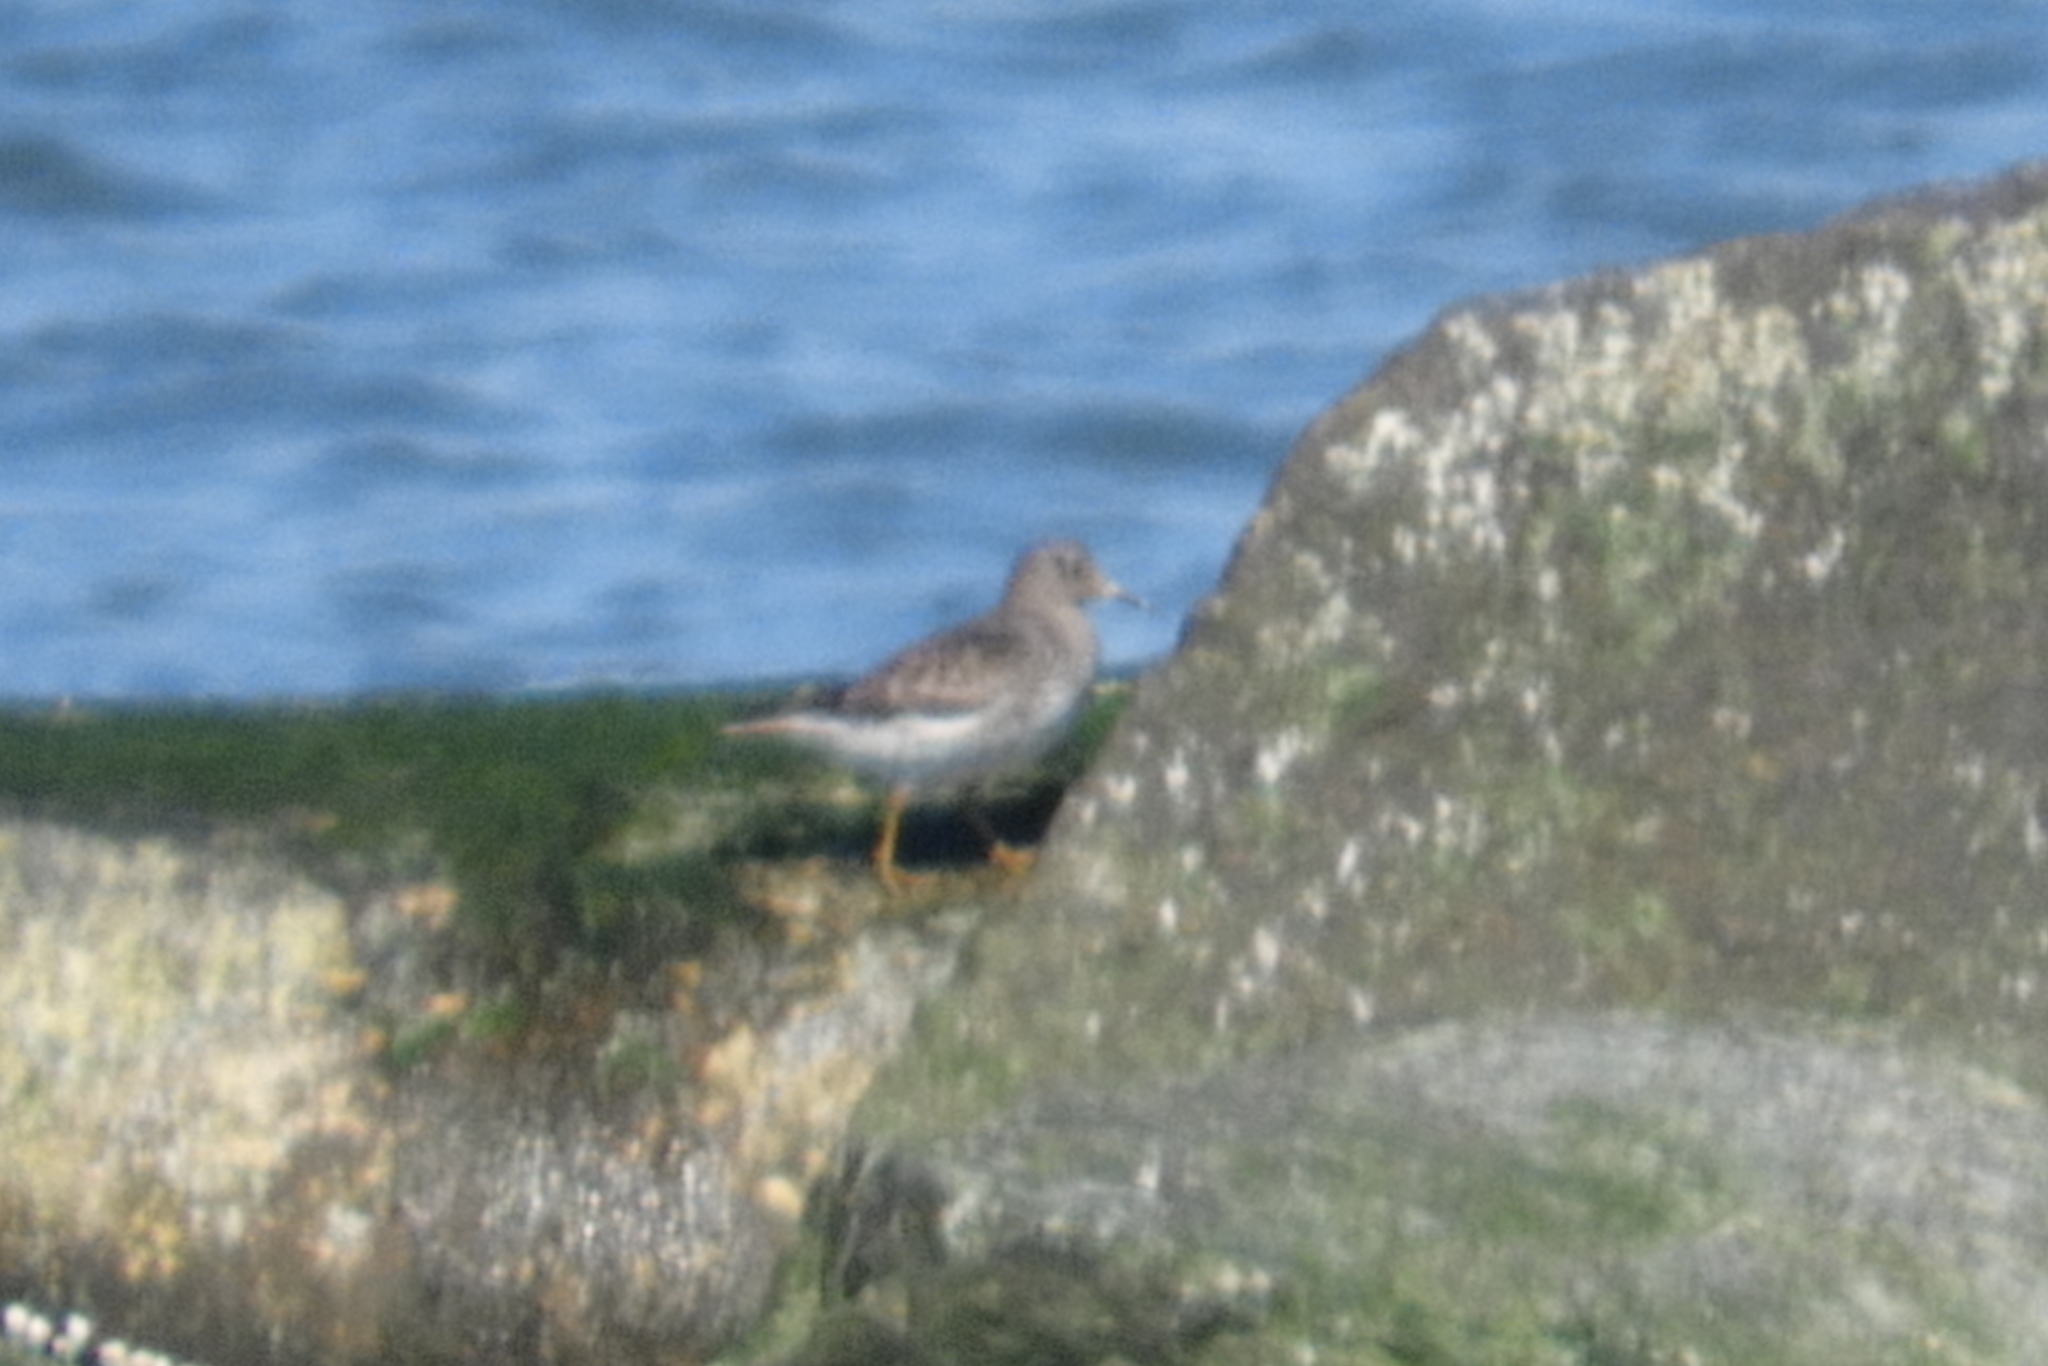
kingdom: Animalia
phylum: Chordata
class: Aves
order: Charadriiformes
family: Scolopacidae
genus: Calidris
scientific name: Calidris maritima
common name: Purple sandpiper
